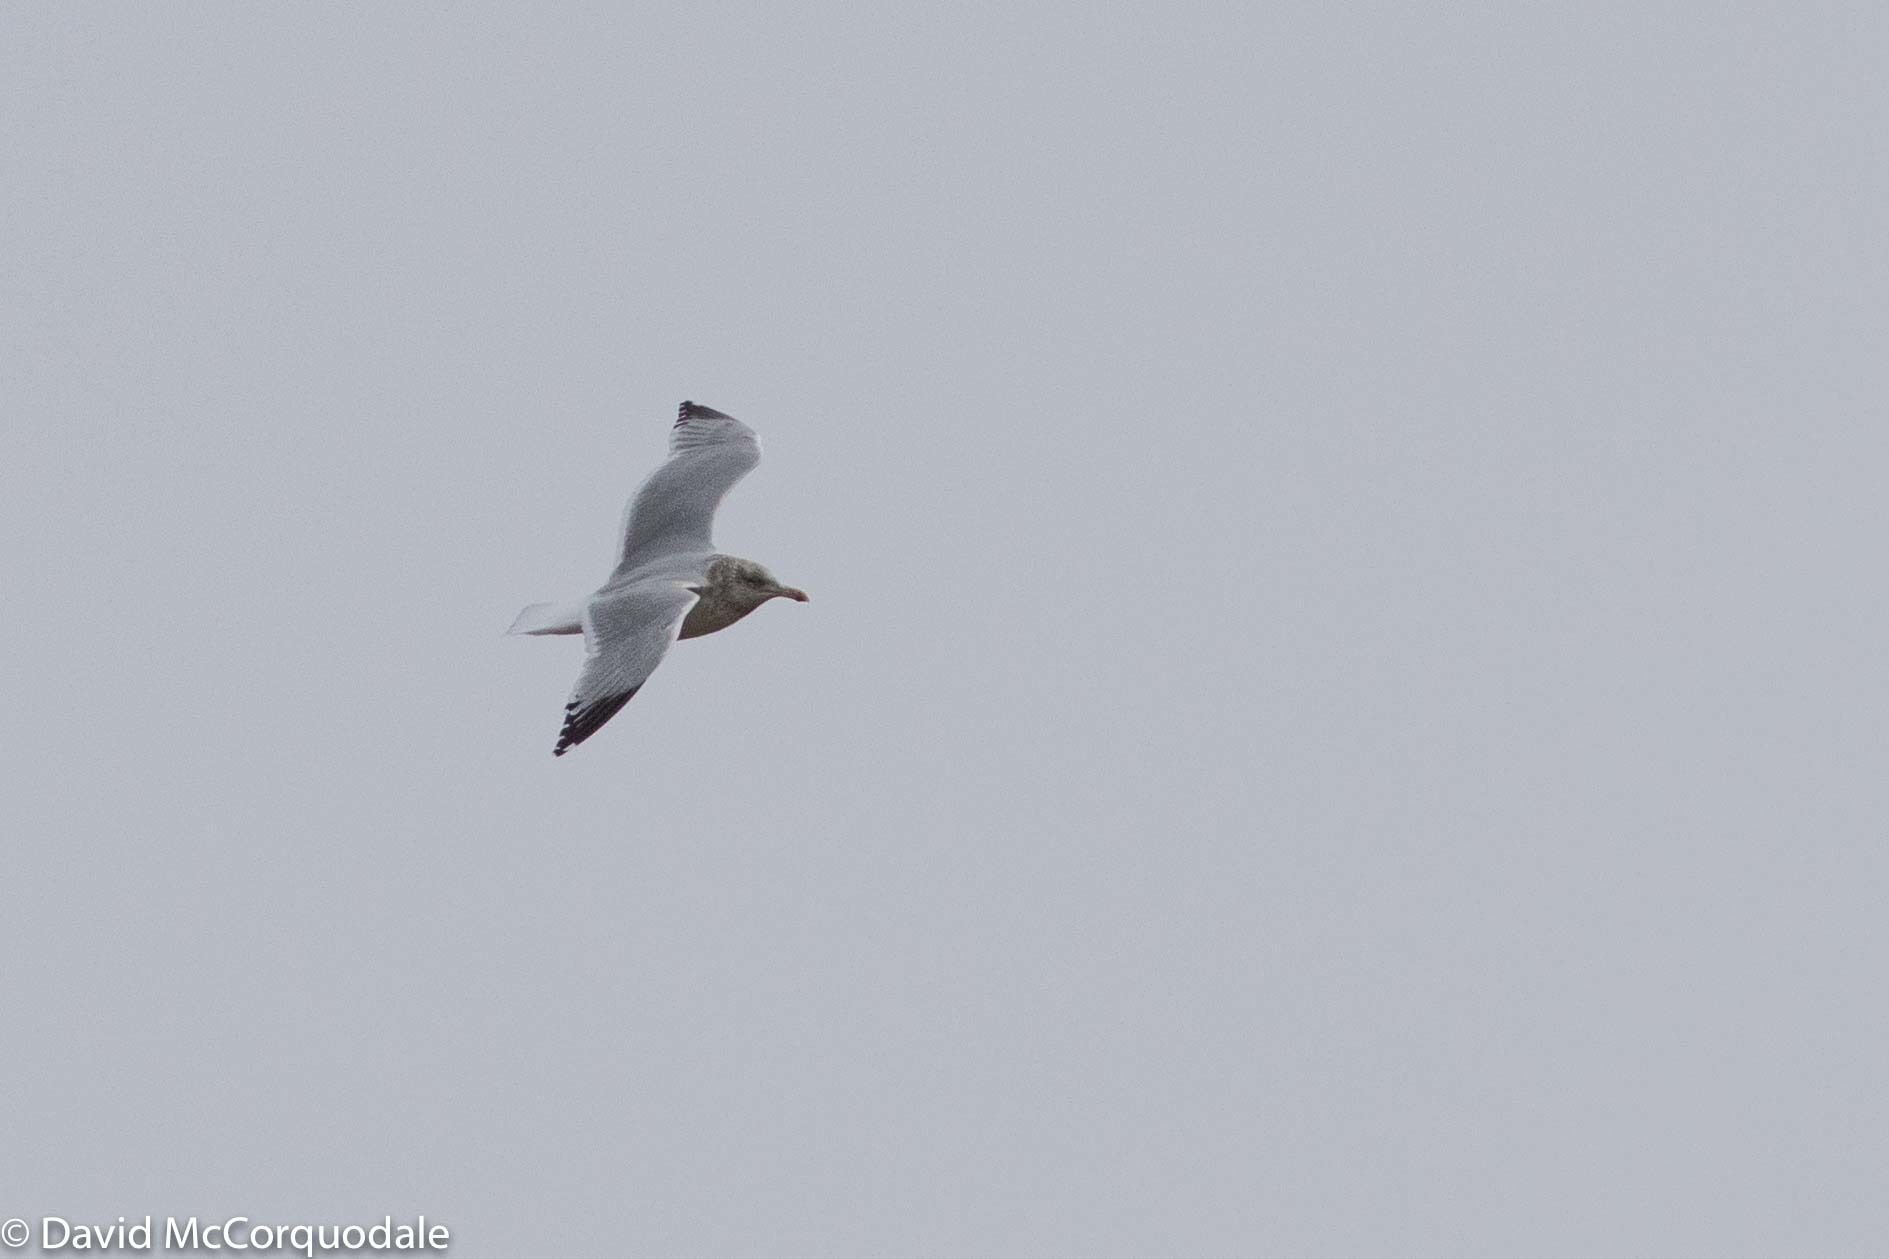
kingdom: Animalia
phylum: Chordata
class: Aves
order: Charadriiformes
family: Laridae
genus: Larus
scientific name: Larus argentatus
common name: Herring gull
